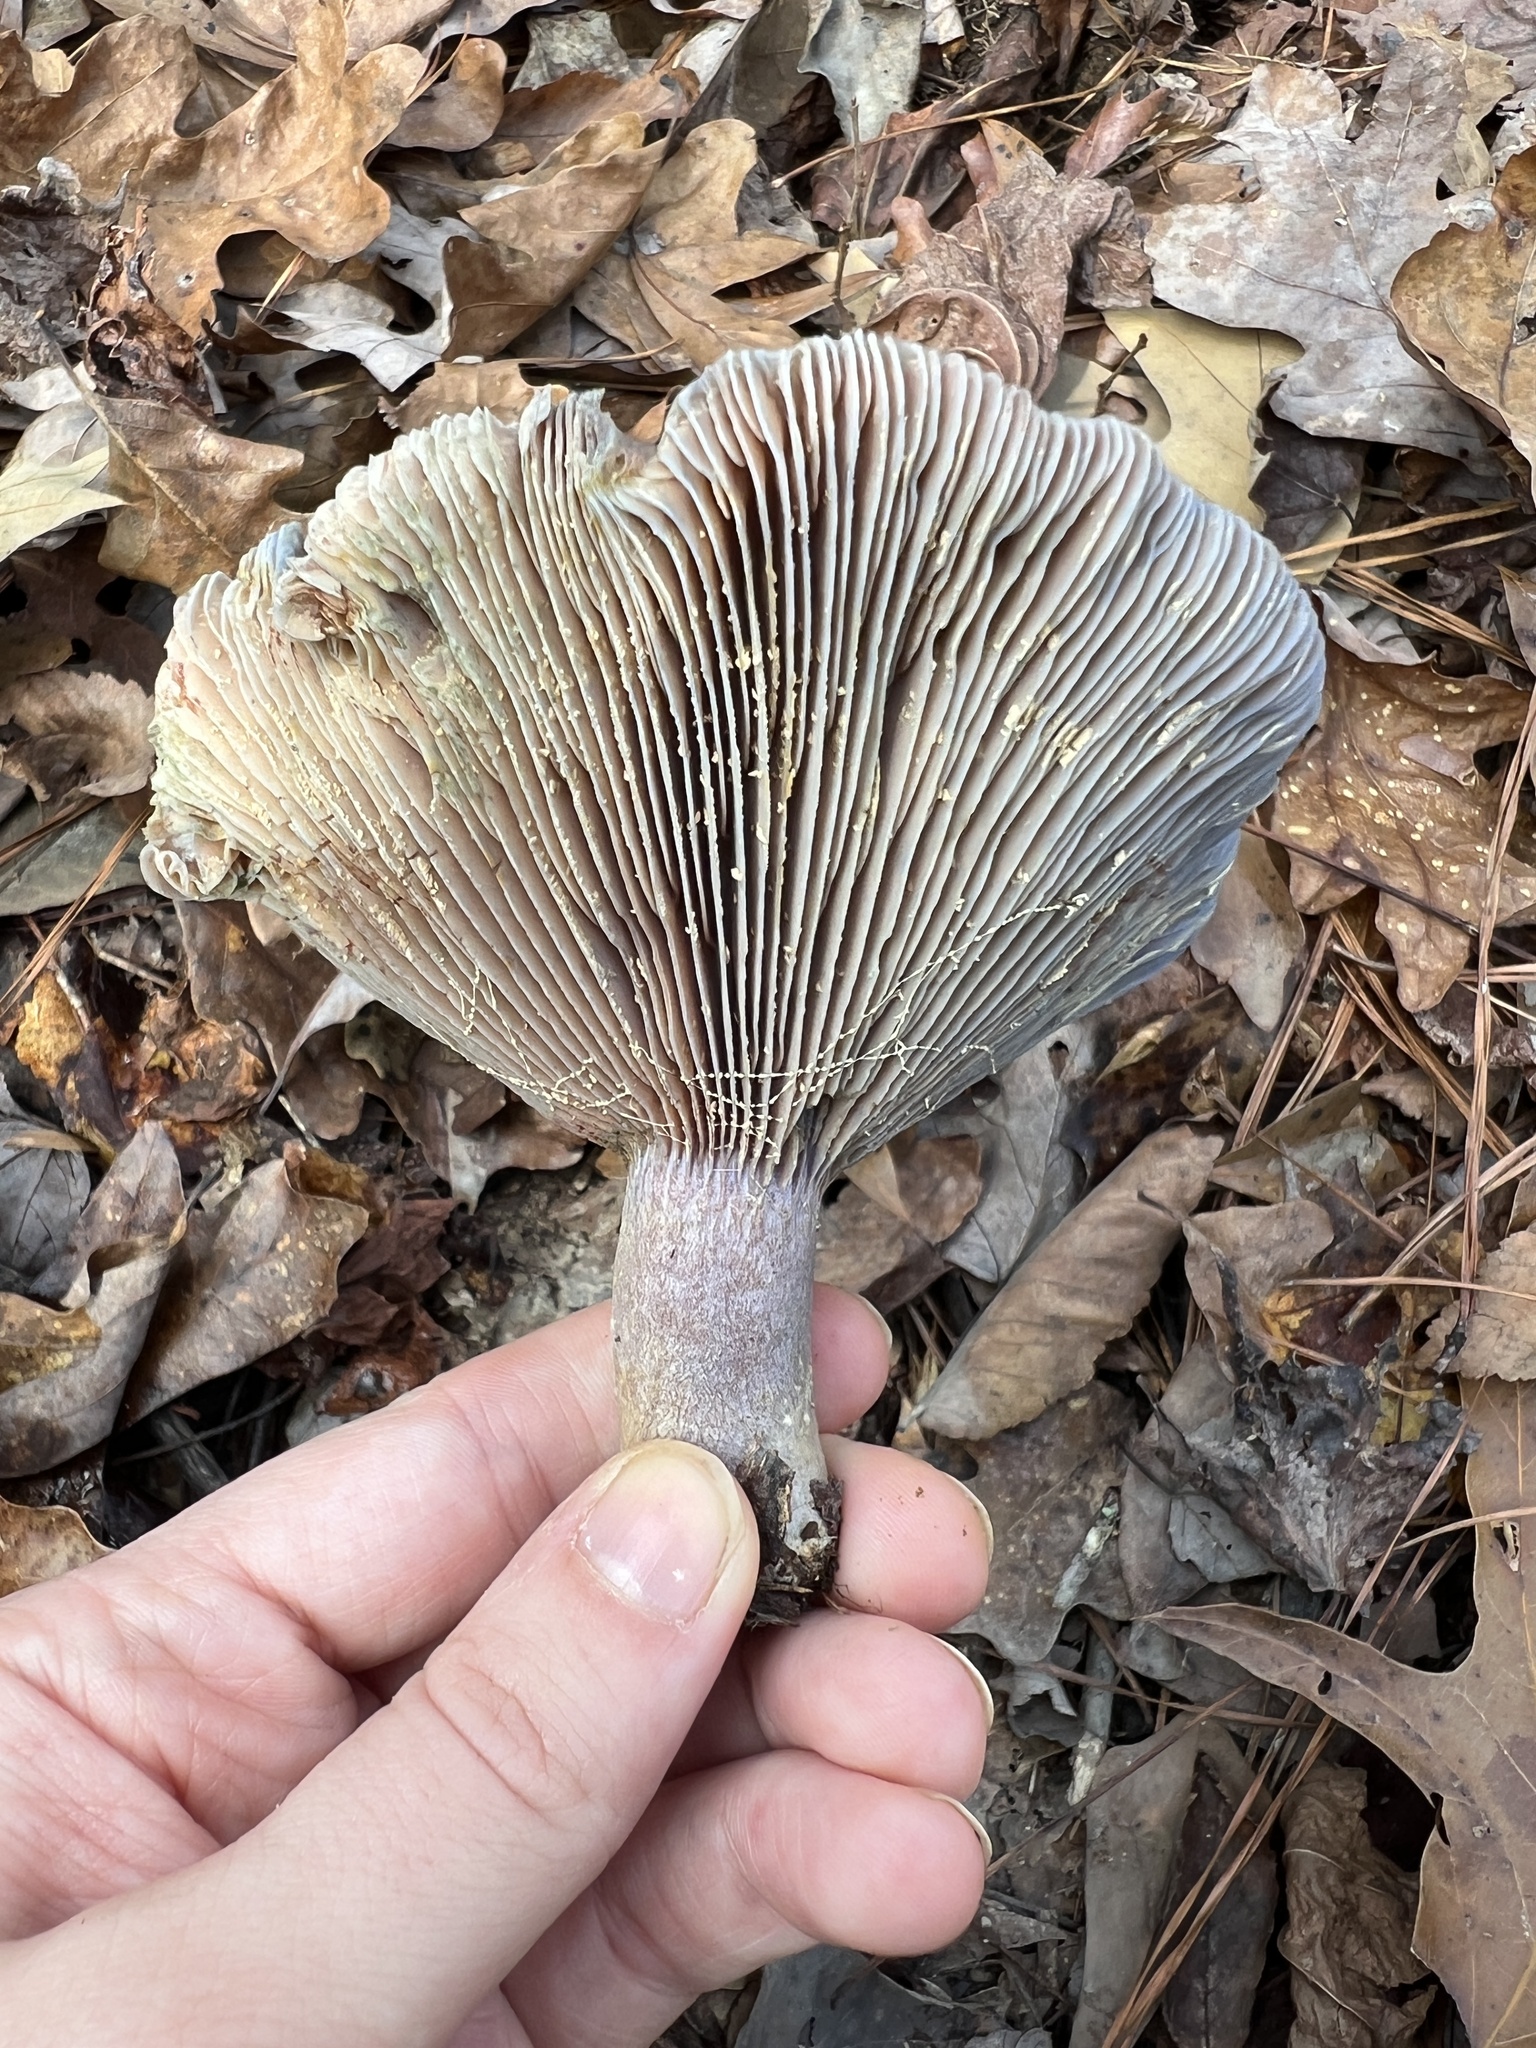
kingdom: Fungi
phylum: Basidiomycota
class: Agaricomycetes
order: Russulales
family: Russulaceae
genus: Lactarius
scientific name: Lactarius paradoxus
